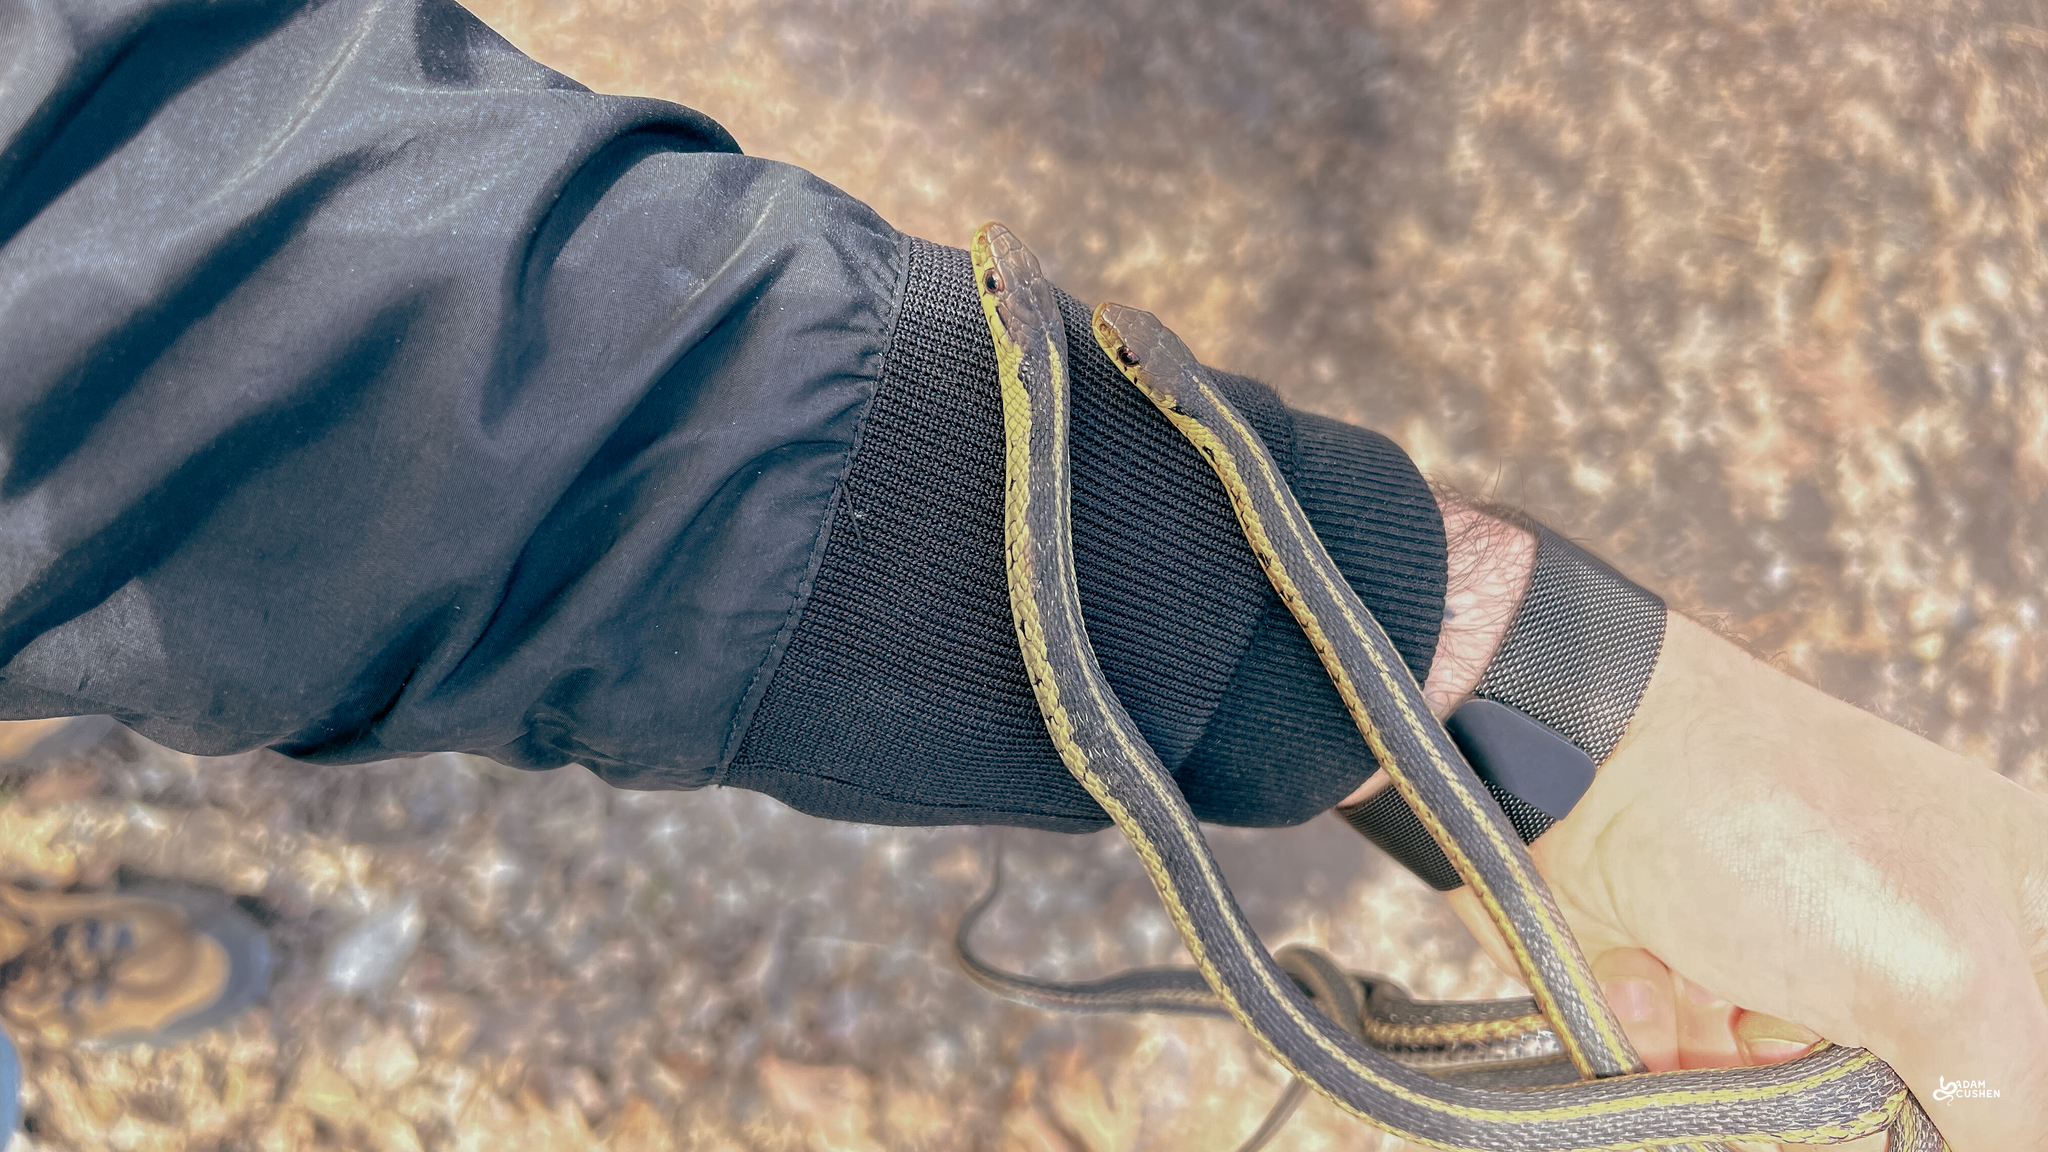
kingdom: Animalia
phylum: Chordata
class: Squamata
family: Colubridae
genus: Thamnophis
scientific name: Thamnophis sirtalis
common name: Common garter snake
